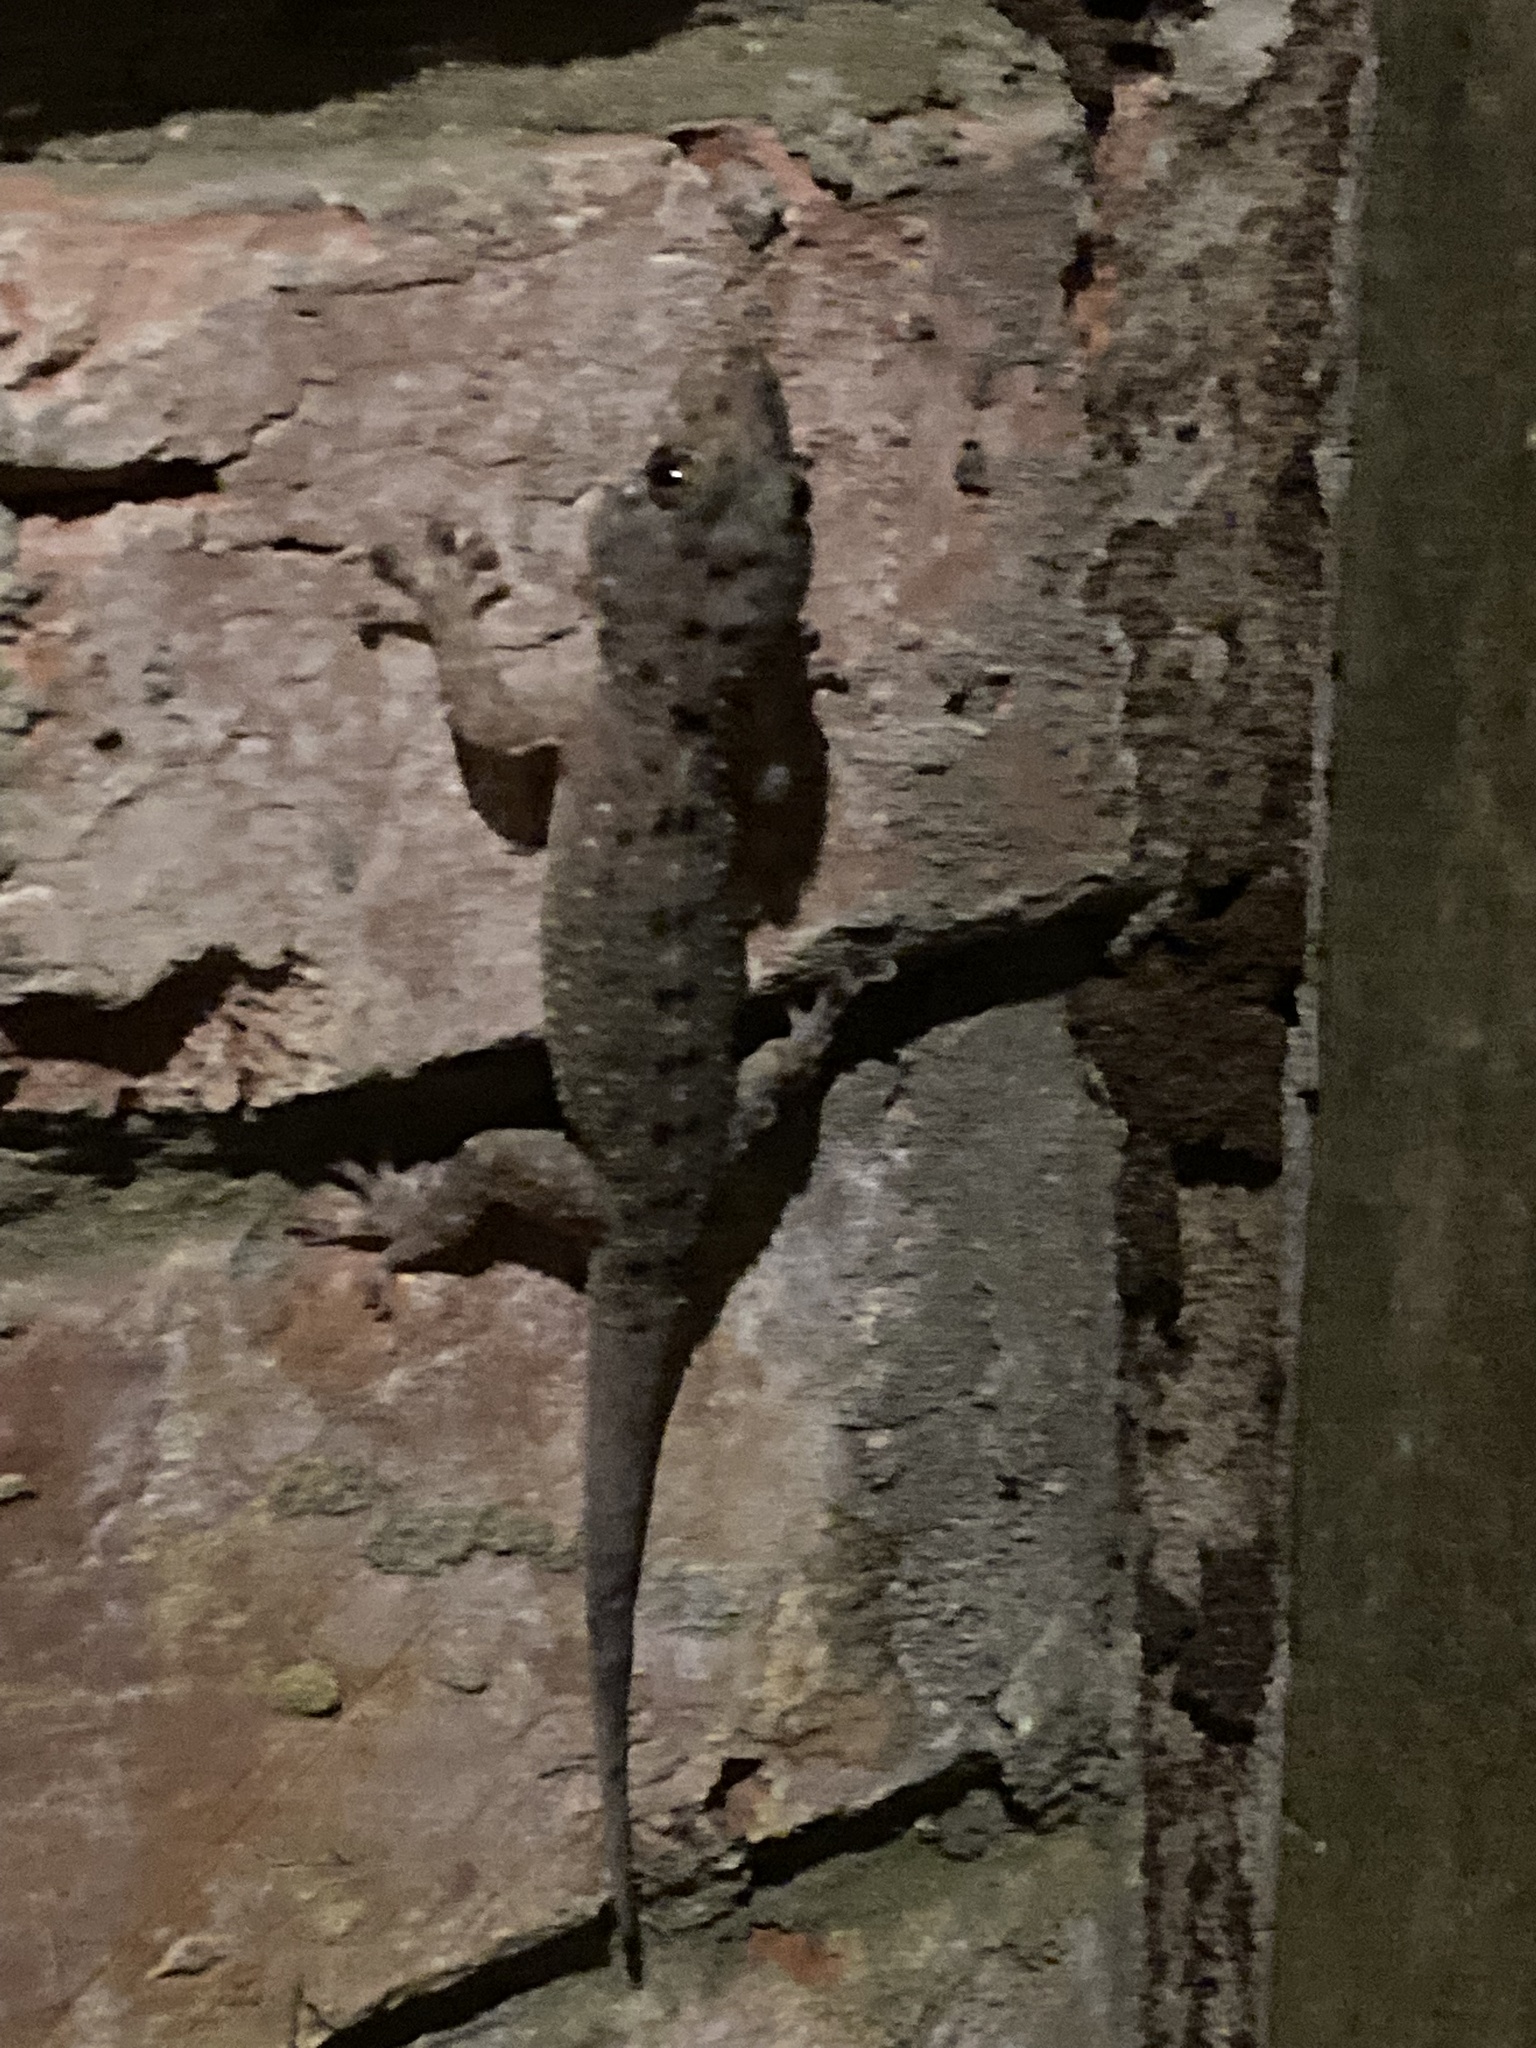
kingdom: Animalia
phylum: Chordata
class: Squamata
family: Gekkonidae
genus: Gekko
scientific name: Gekko monarchus
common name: Spotted house gecko
